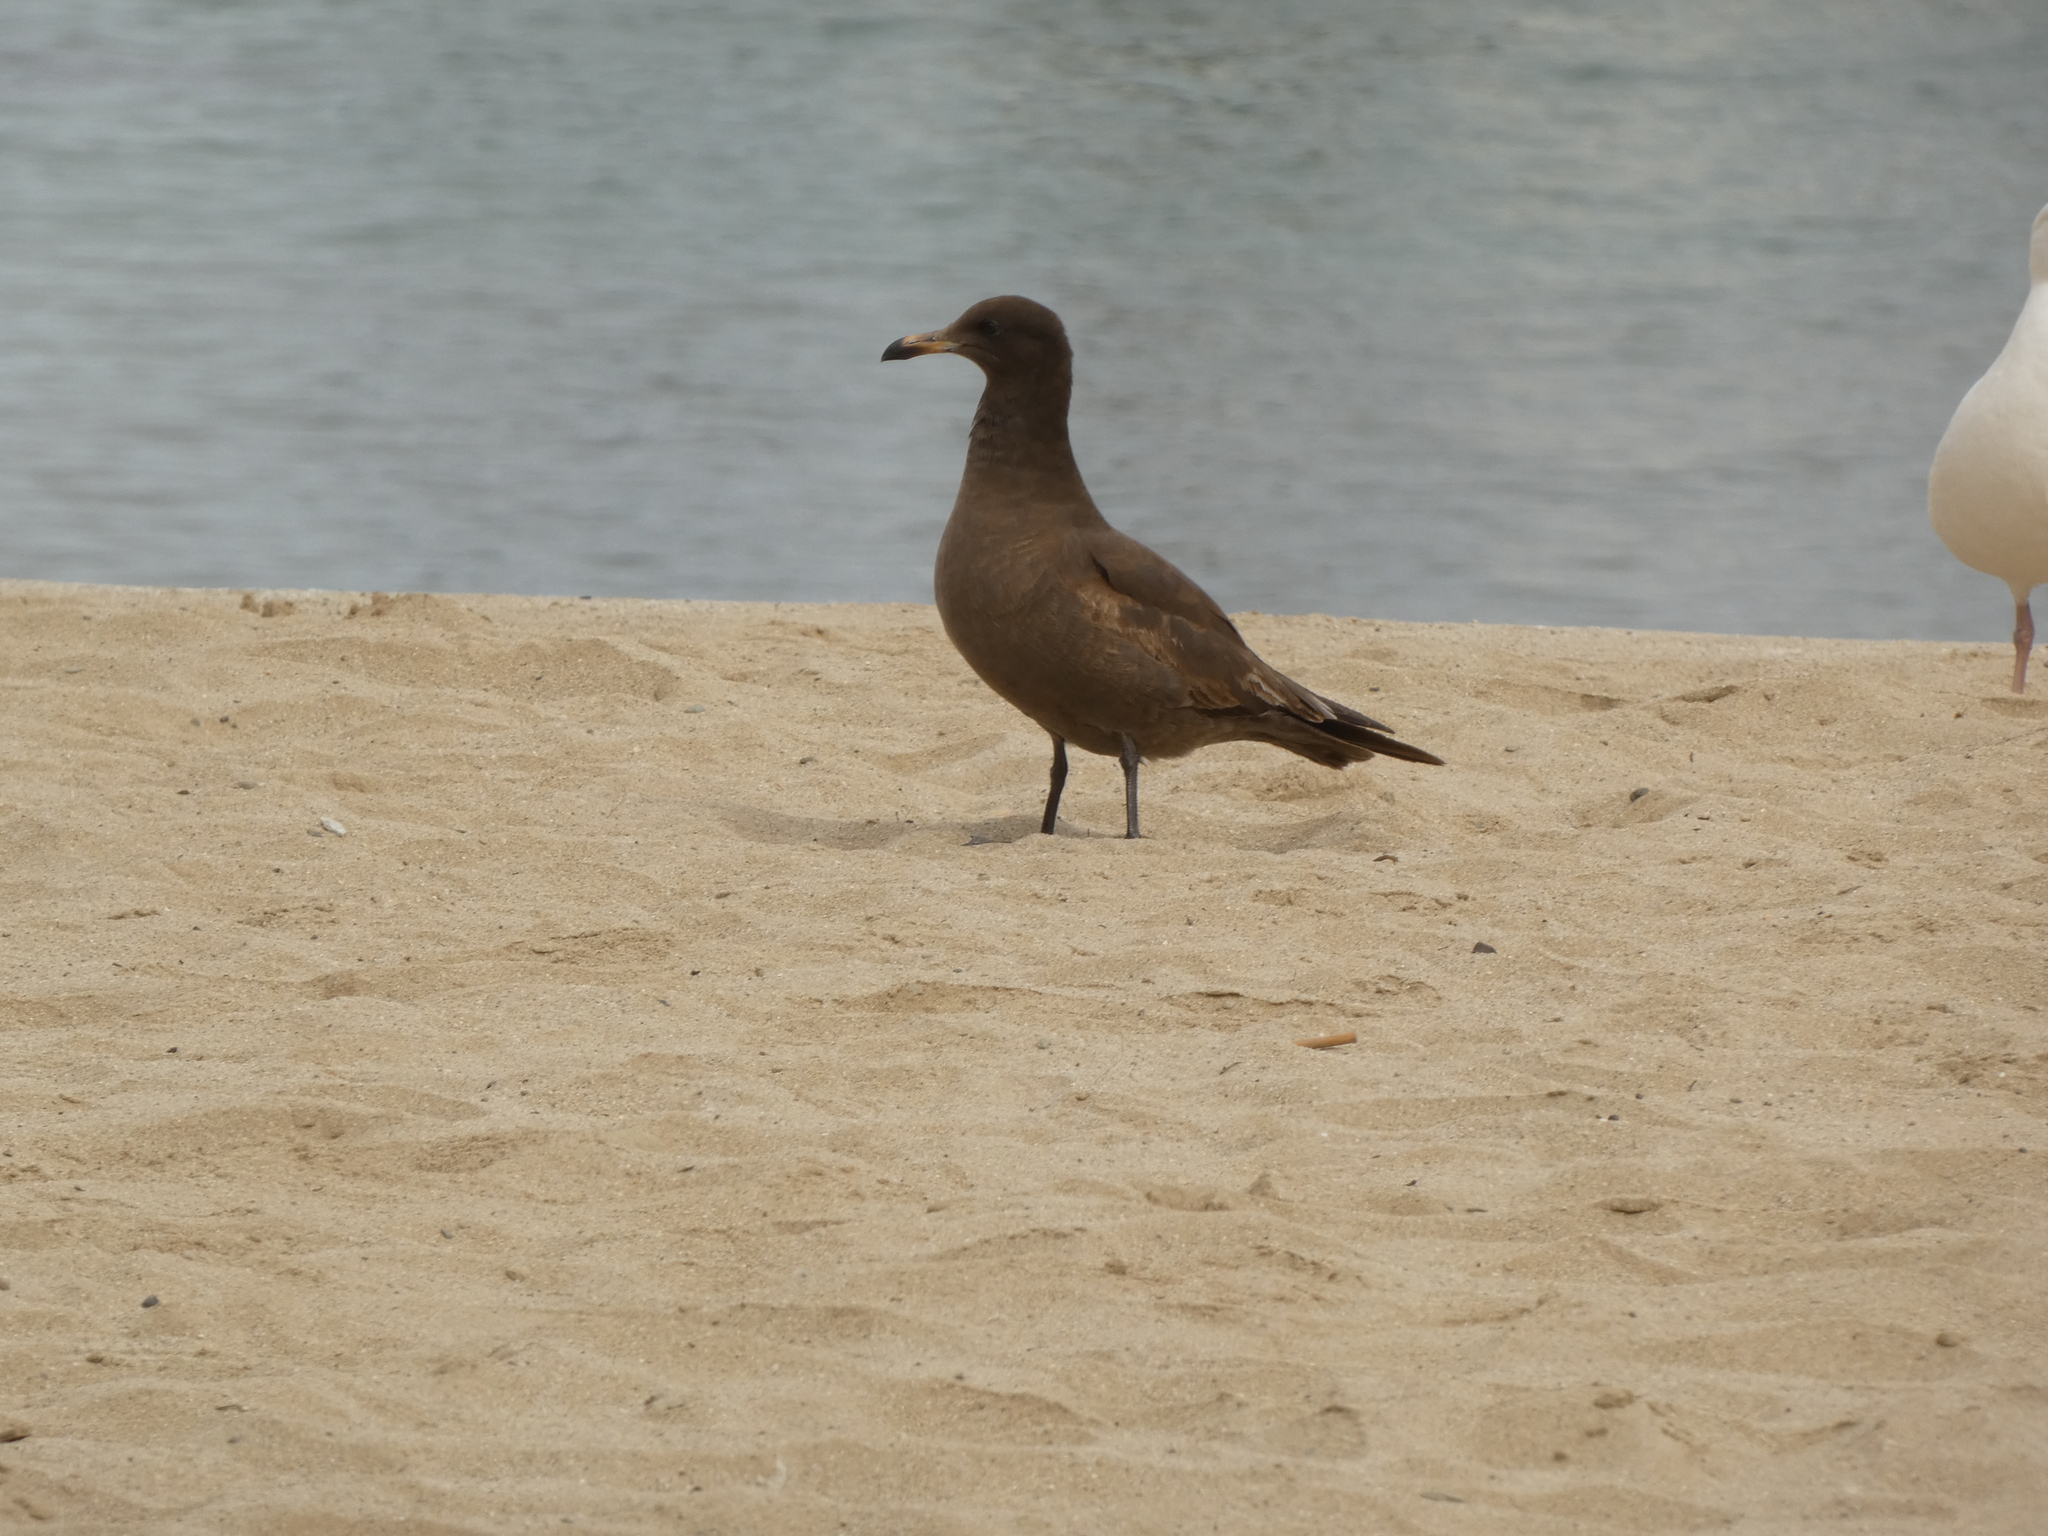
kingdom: Animalia
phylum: Chordata
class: Aves
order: Charadriiformes
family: Laridae
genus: Larus
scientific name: Larus heermanni
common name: Heermann's gull
